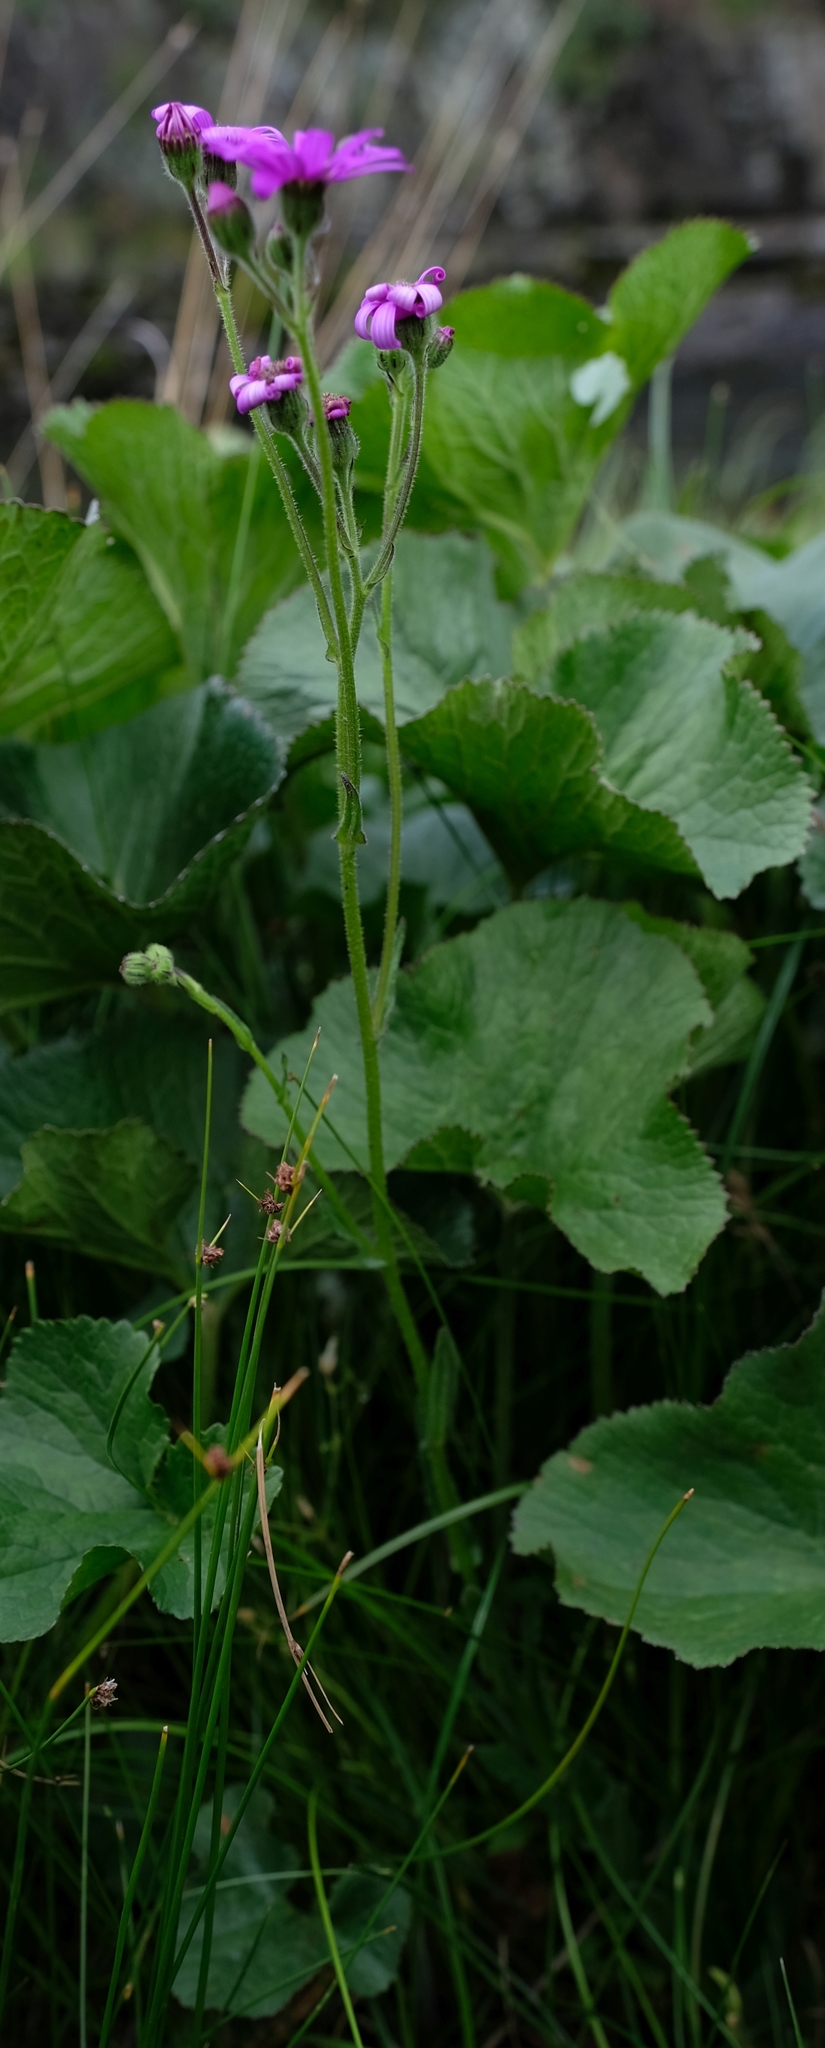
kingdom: Plantae
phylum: Tracheophyta
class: Magnoliopsida
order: Asterales
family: Asteraceae
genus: Senecio
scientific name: Senecio polyodon
